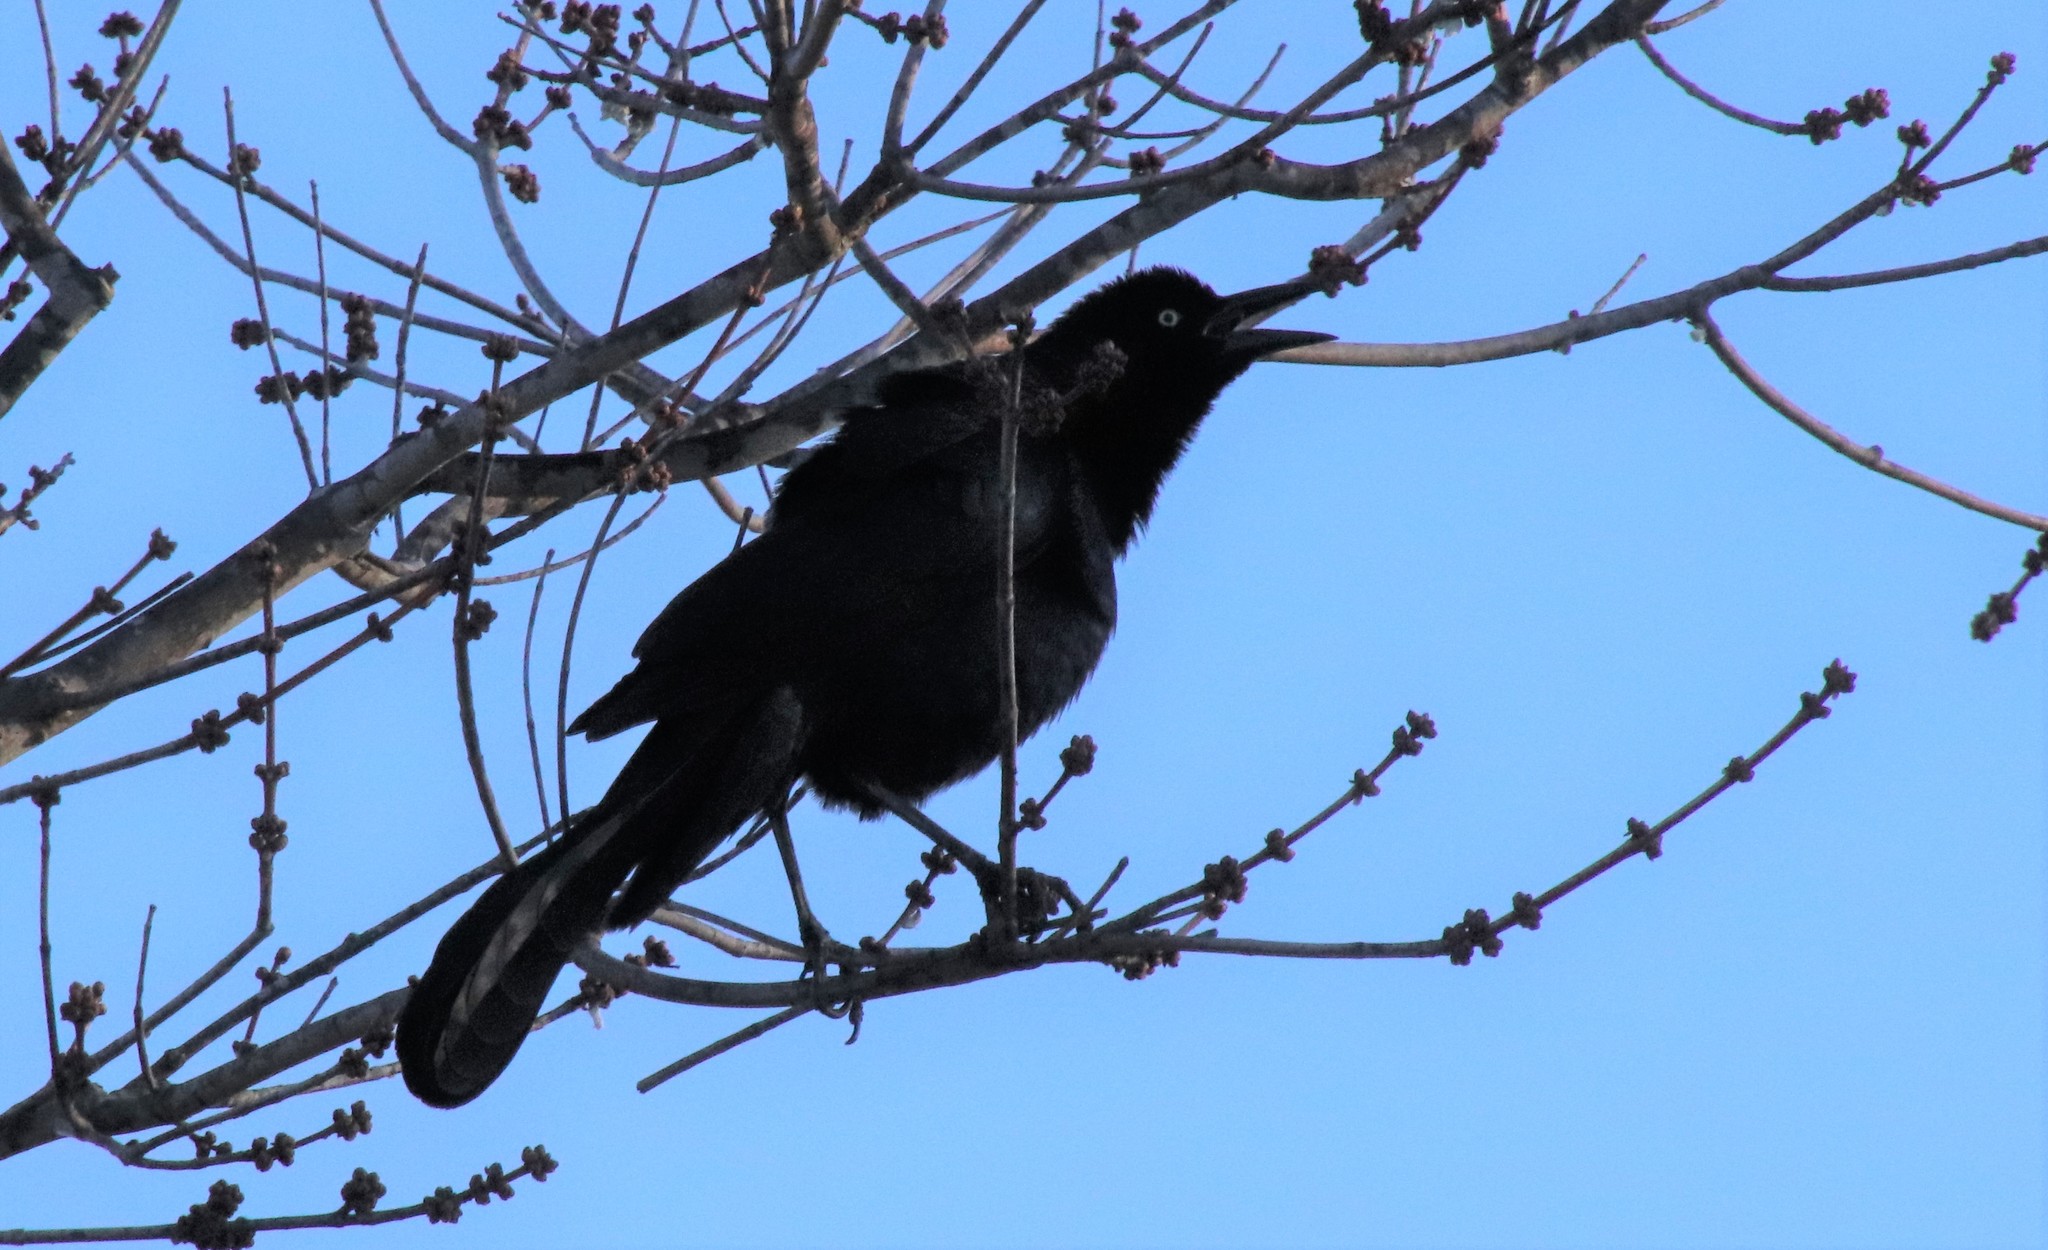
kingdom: Animalia
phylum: Chordata
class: Aves
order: Passeriformes
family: Icteridae
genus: Quiscalus
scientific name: Quiscalus mexicanus
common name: Great-tailed grackle
